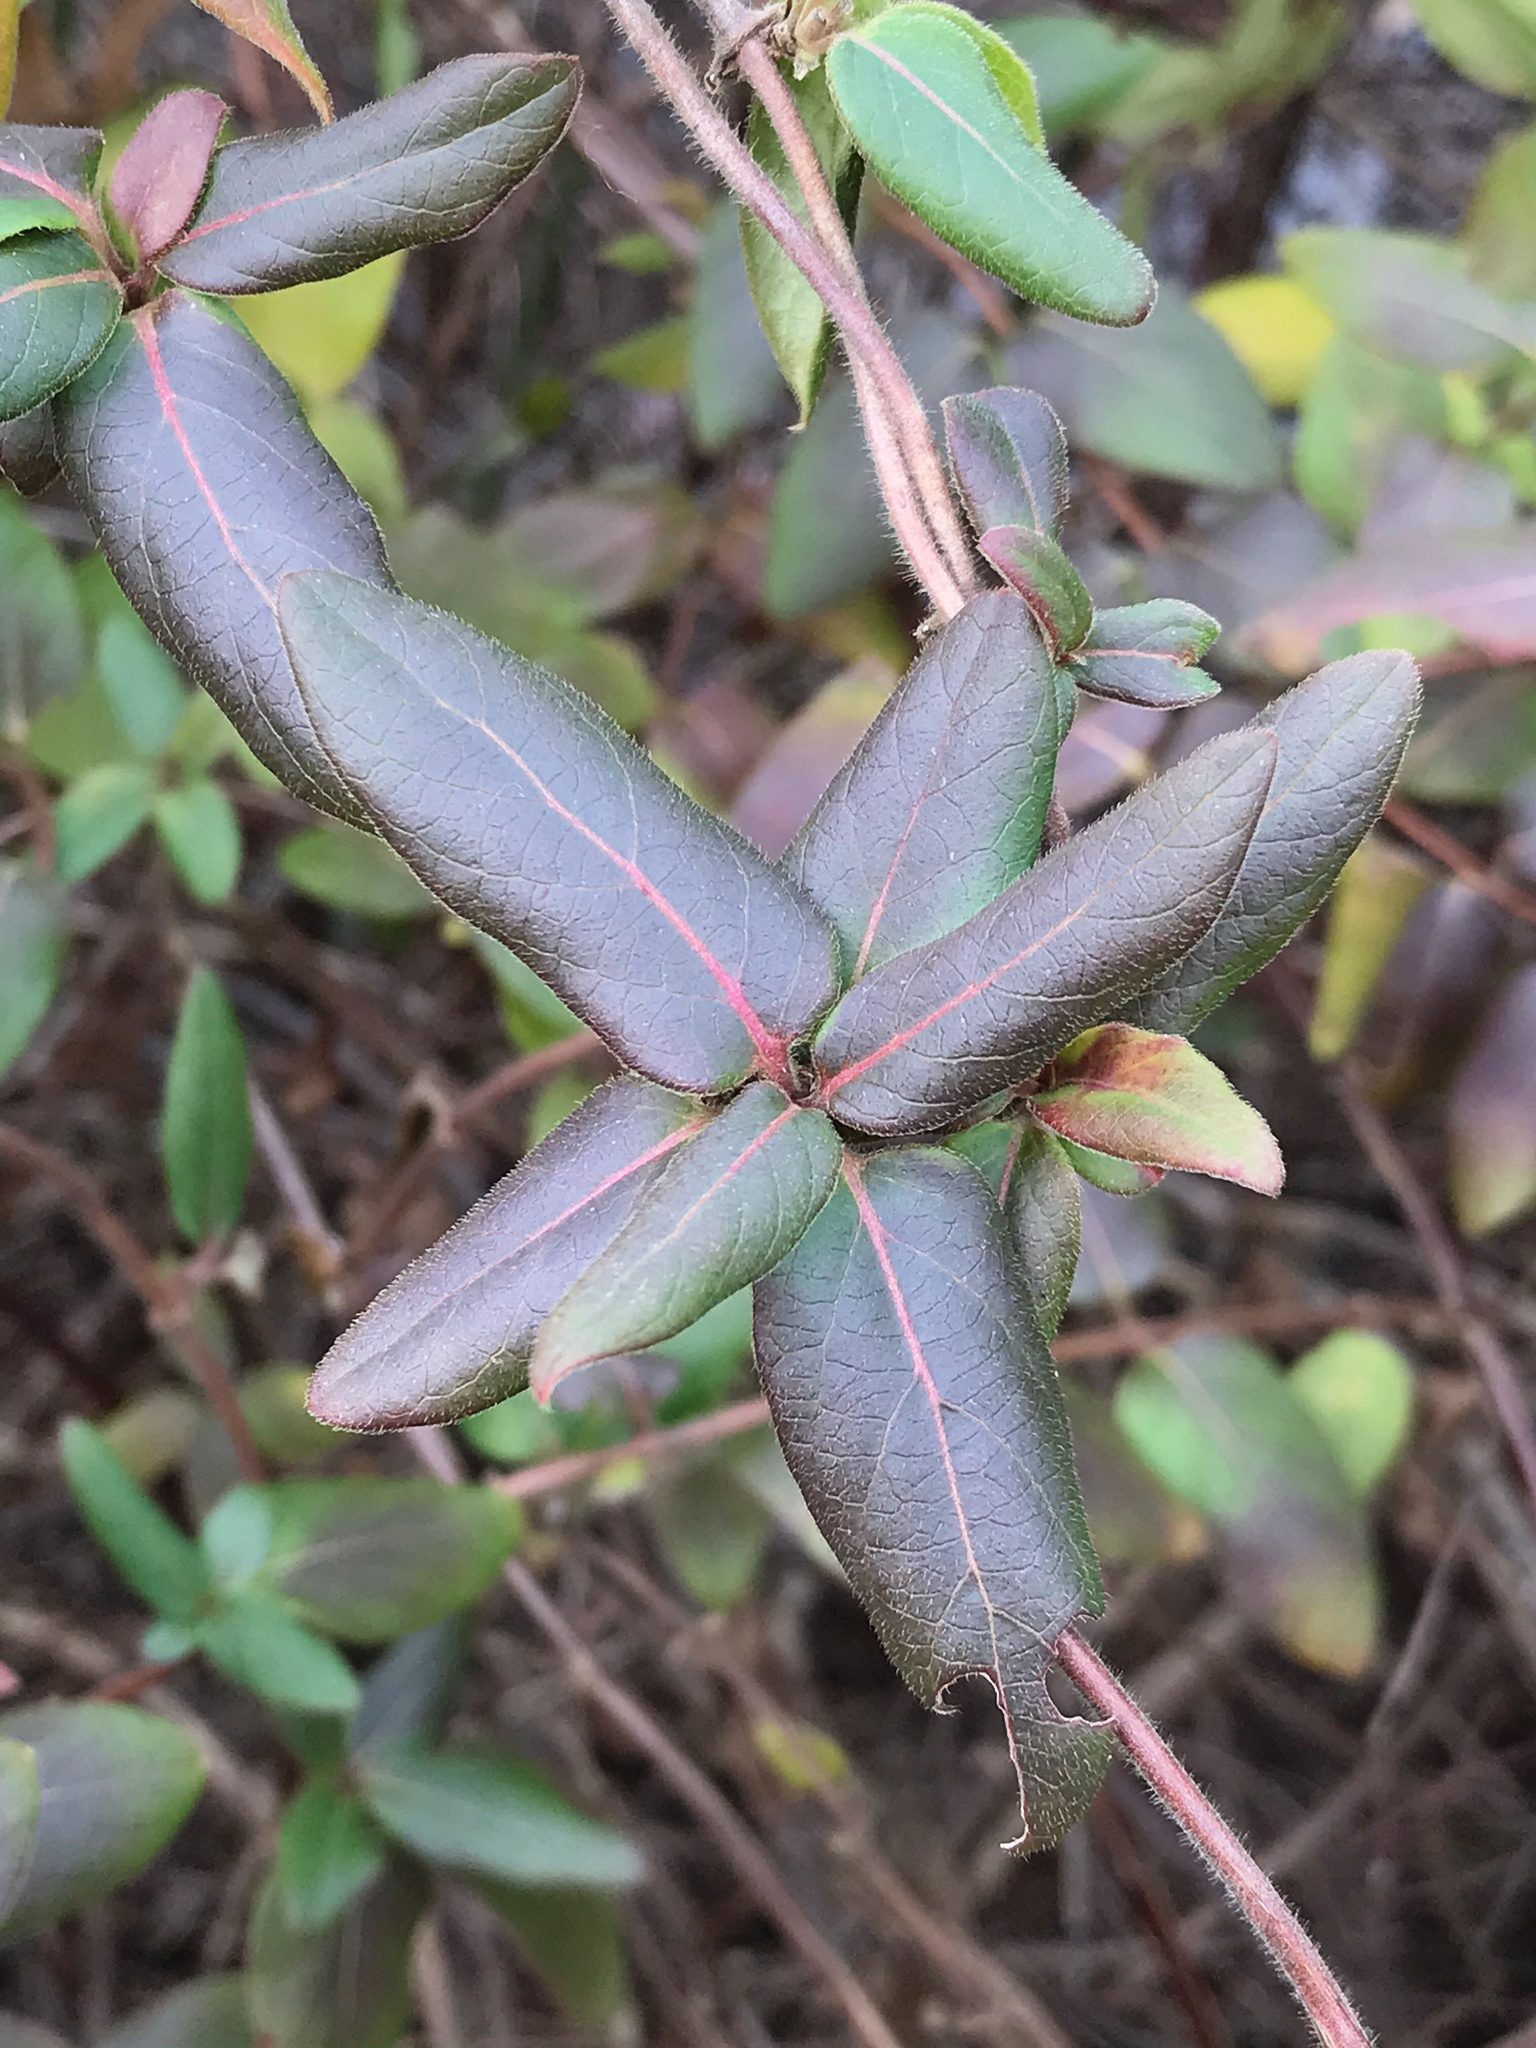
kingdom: Plantae
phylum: Tracheophyta
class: Magnoliopsida
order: Dipsacales
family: Caprifoliaceae
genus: Lonicera
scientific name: Lonicera japonica
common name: Japanese honeysuckle
